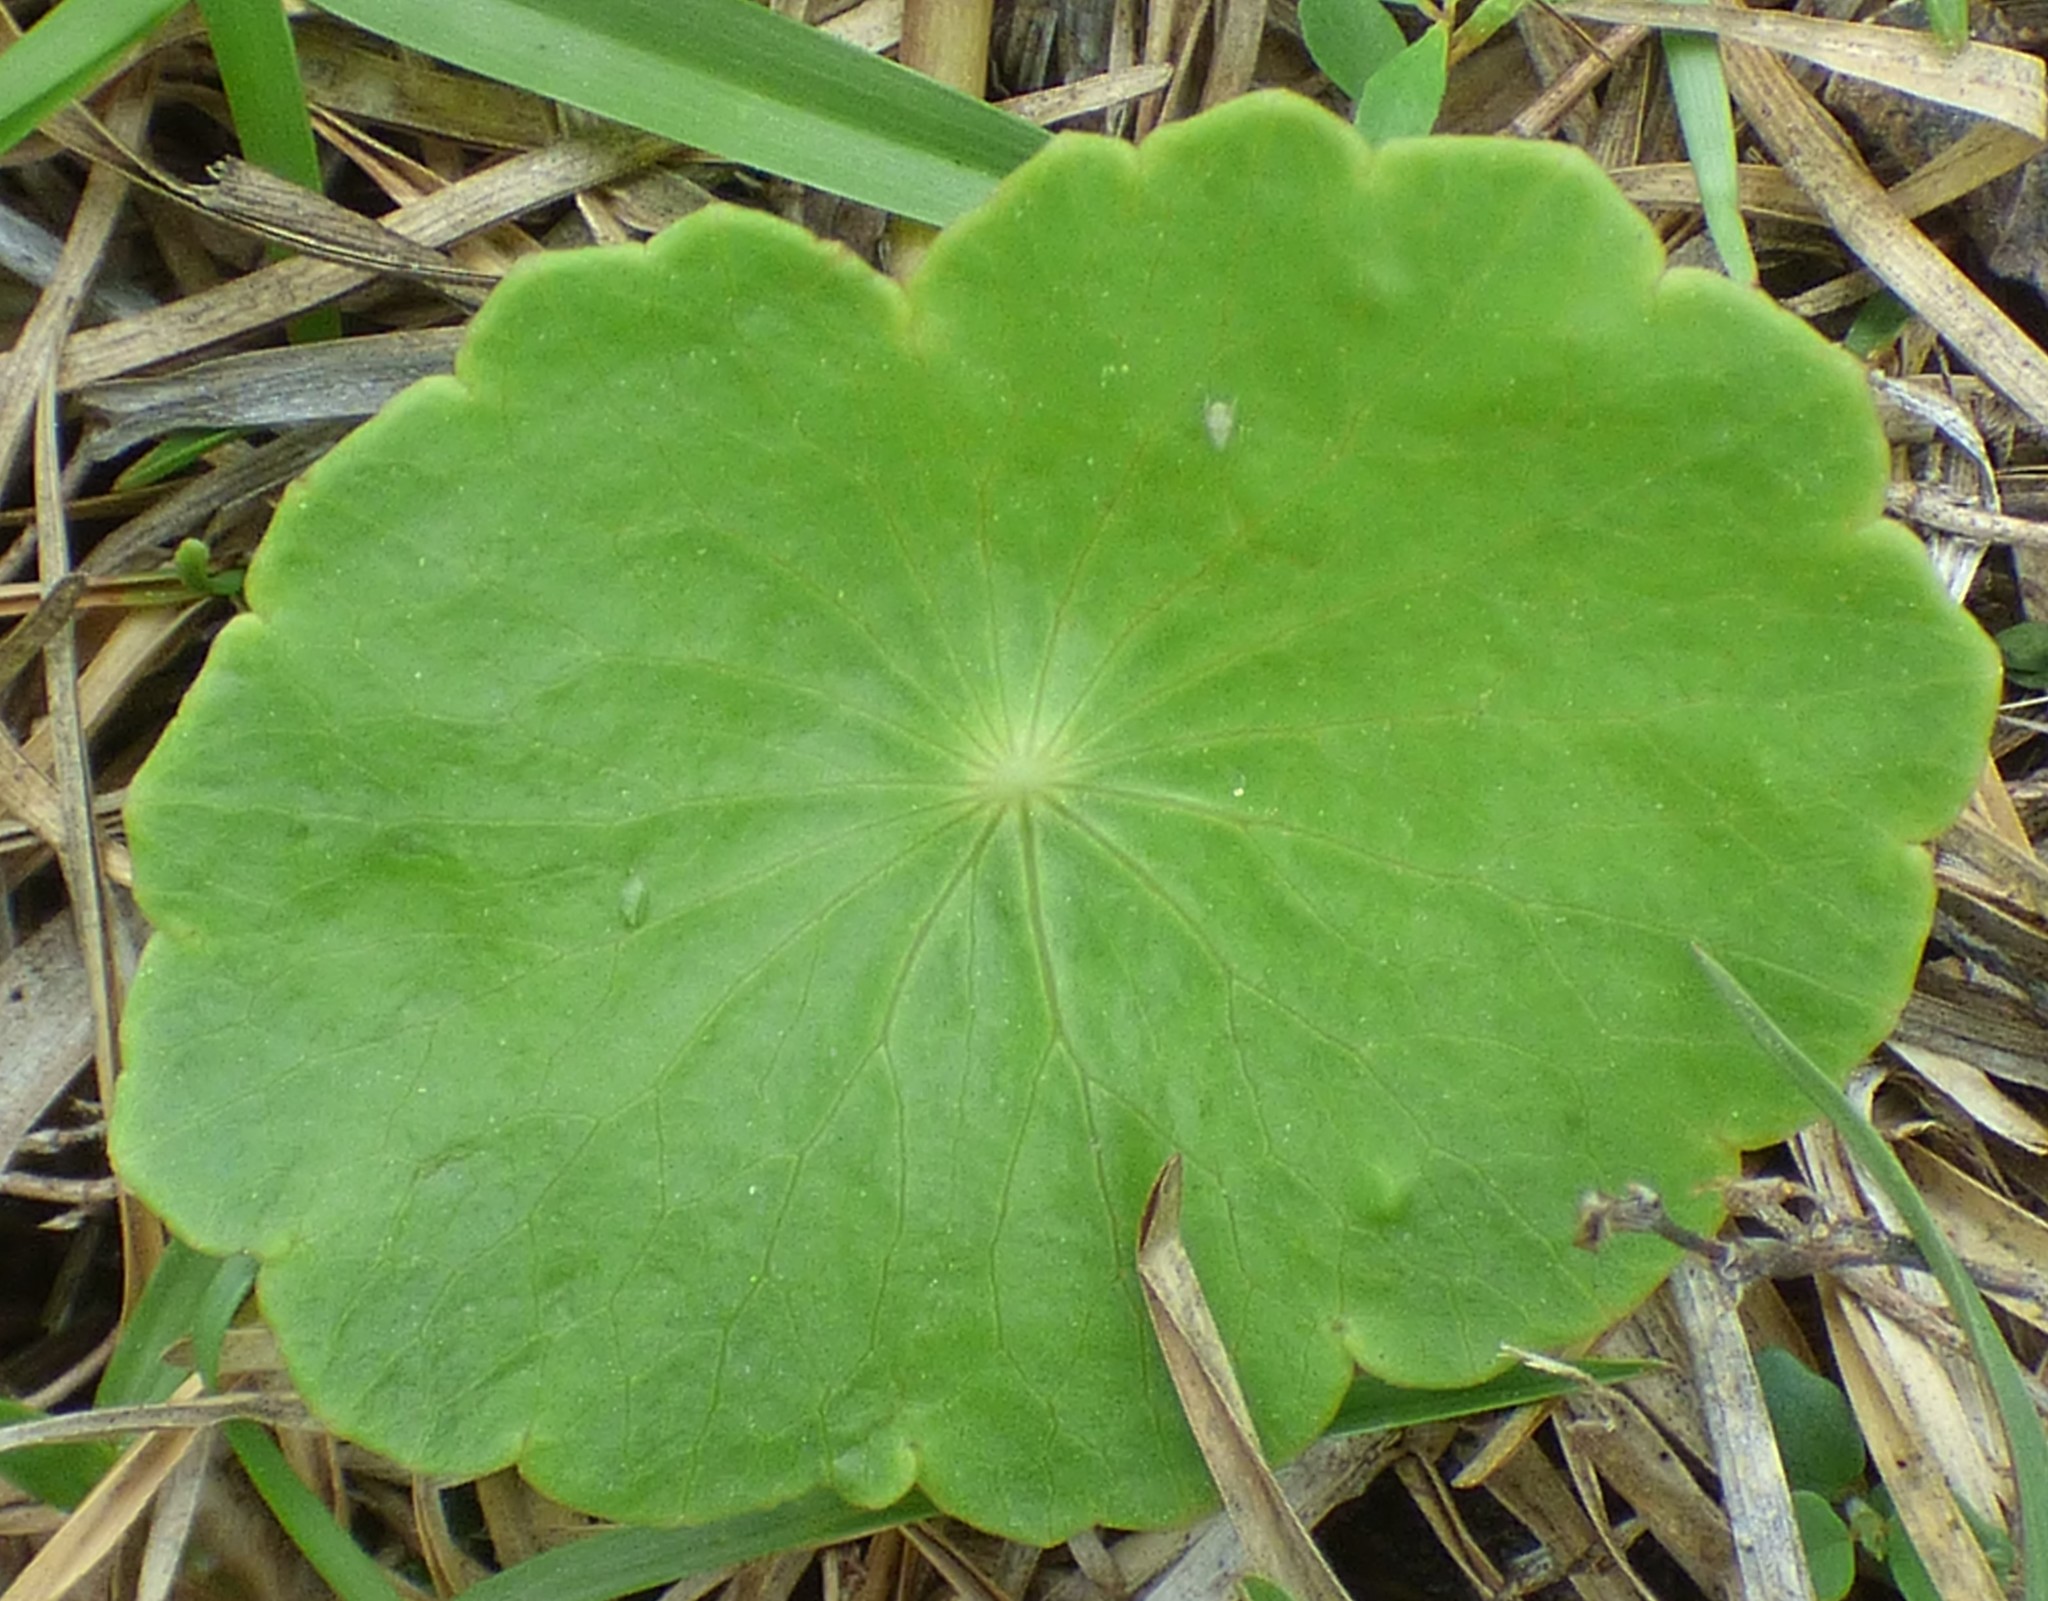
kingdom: Plantae
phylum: Tracheophyta
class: Magnoliopsida
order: Apiales
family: Araliaceae
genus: Hydrocotyle
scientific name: Hydrocotyle bonariensis
